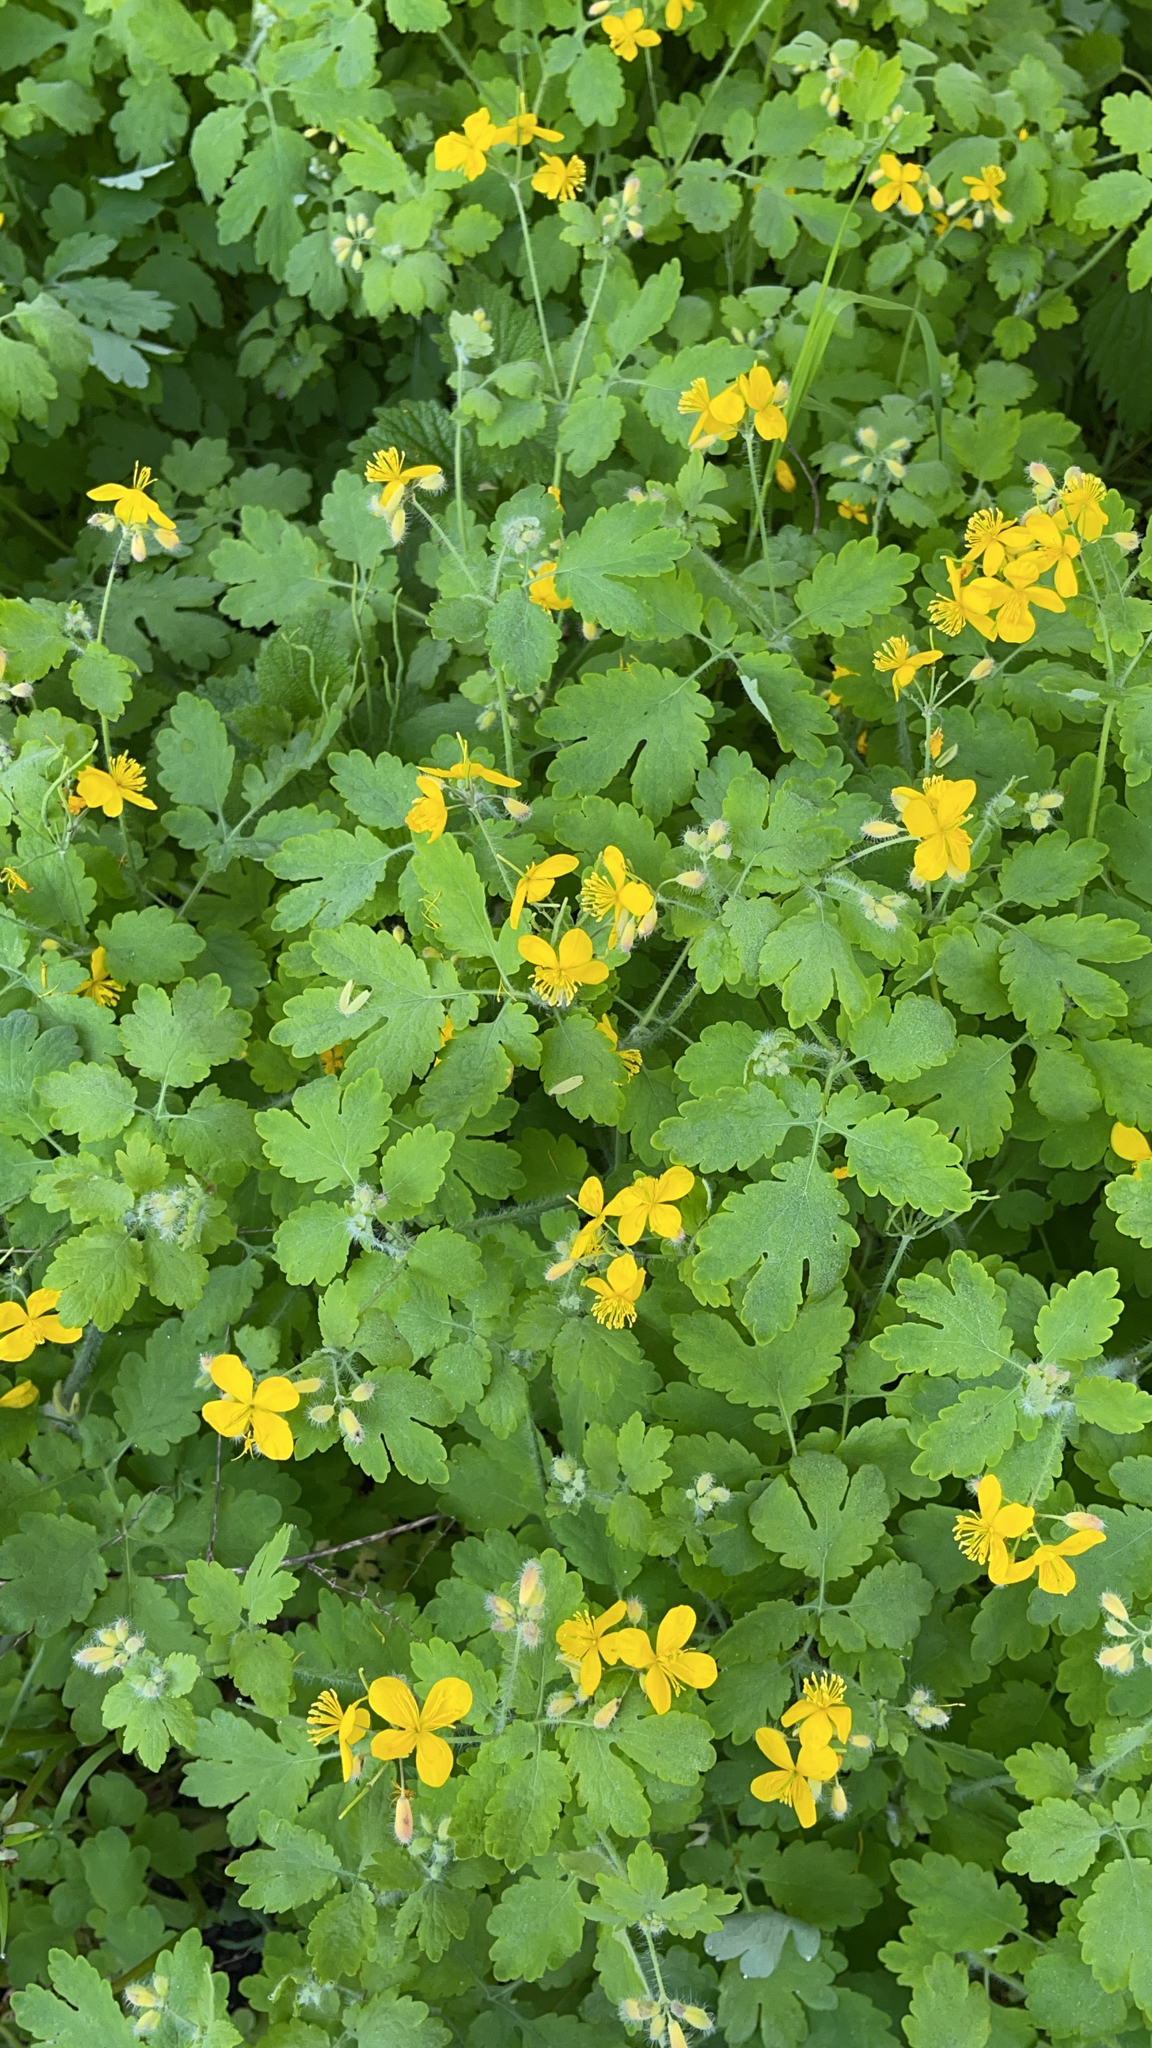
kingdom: Plantae
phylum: Tracheophyta
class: Magnoliopsida
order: Ranunculales
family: Papaveraceae
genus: Chelidonium
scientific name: Chelidonium majus
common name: Greater celandine
